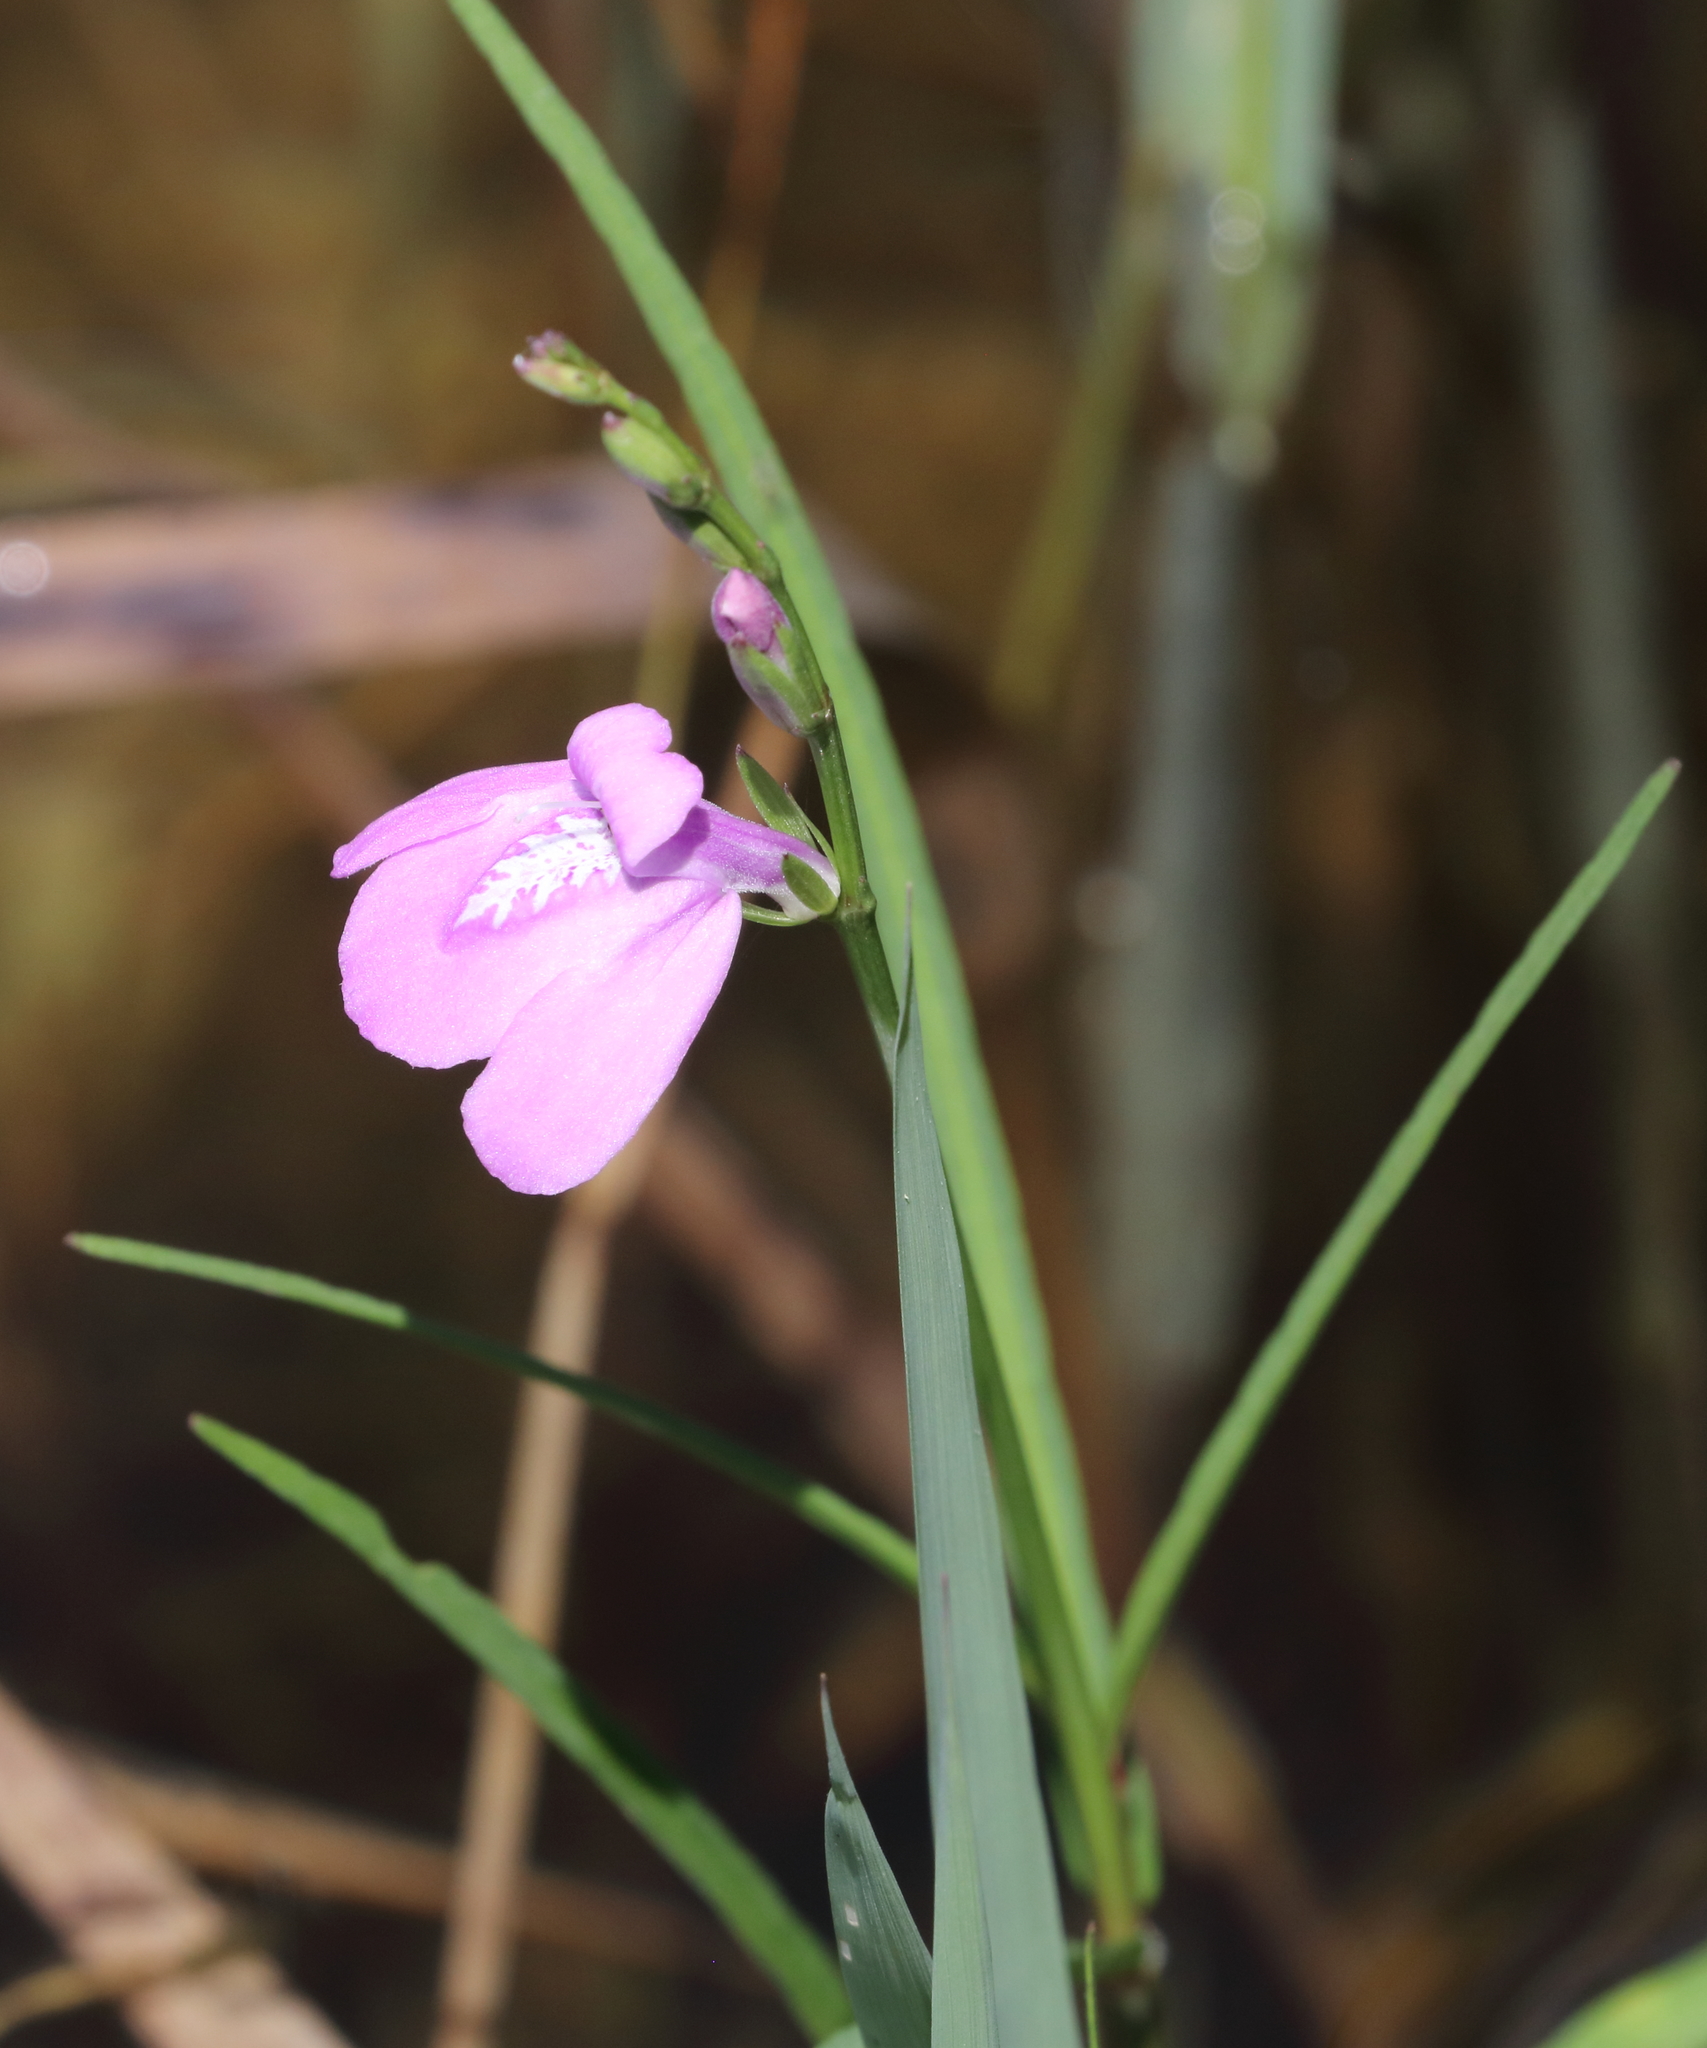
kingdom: Plantae
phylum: Tracheophyta
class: Magnoliopsida
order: Lamiales
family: Acanthaceae
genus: Dianthera
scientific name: Dianthera angusta
